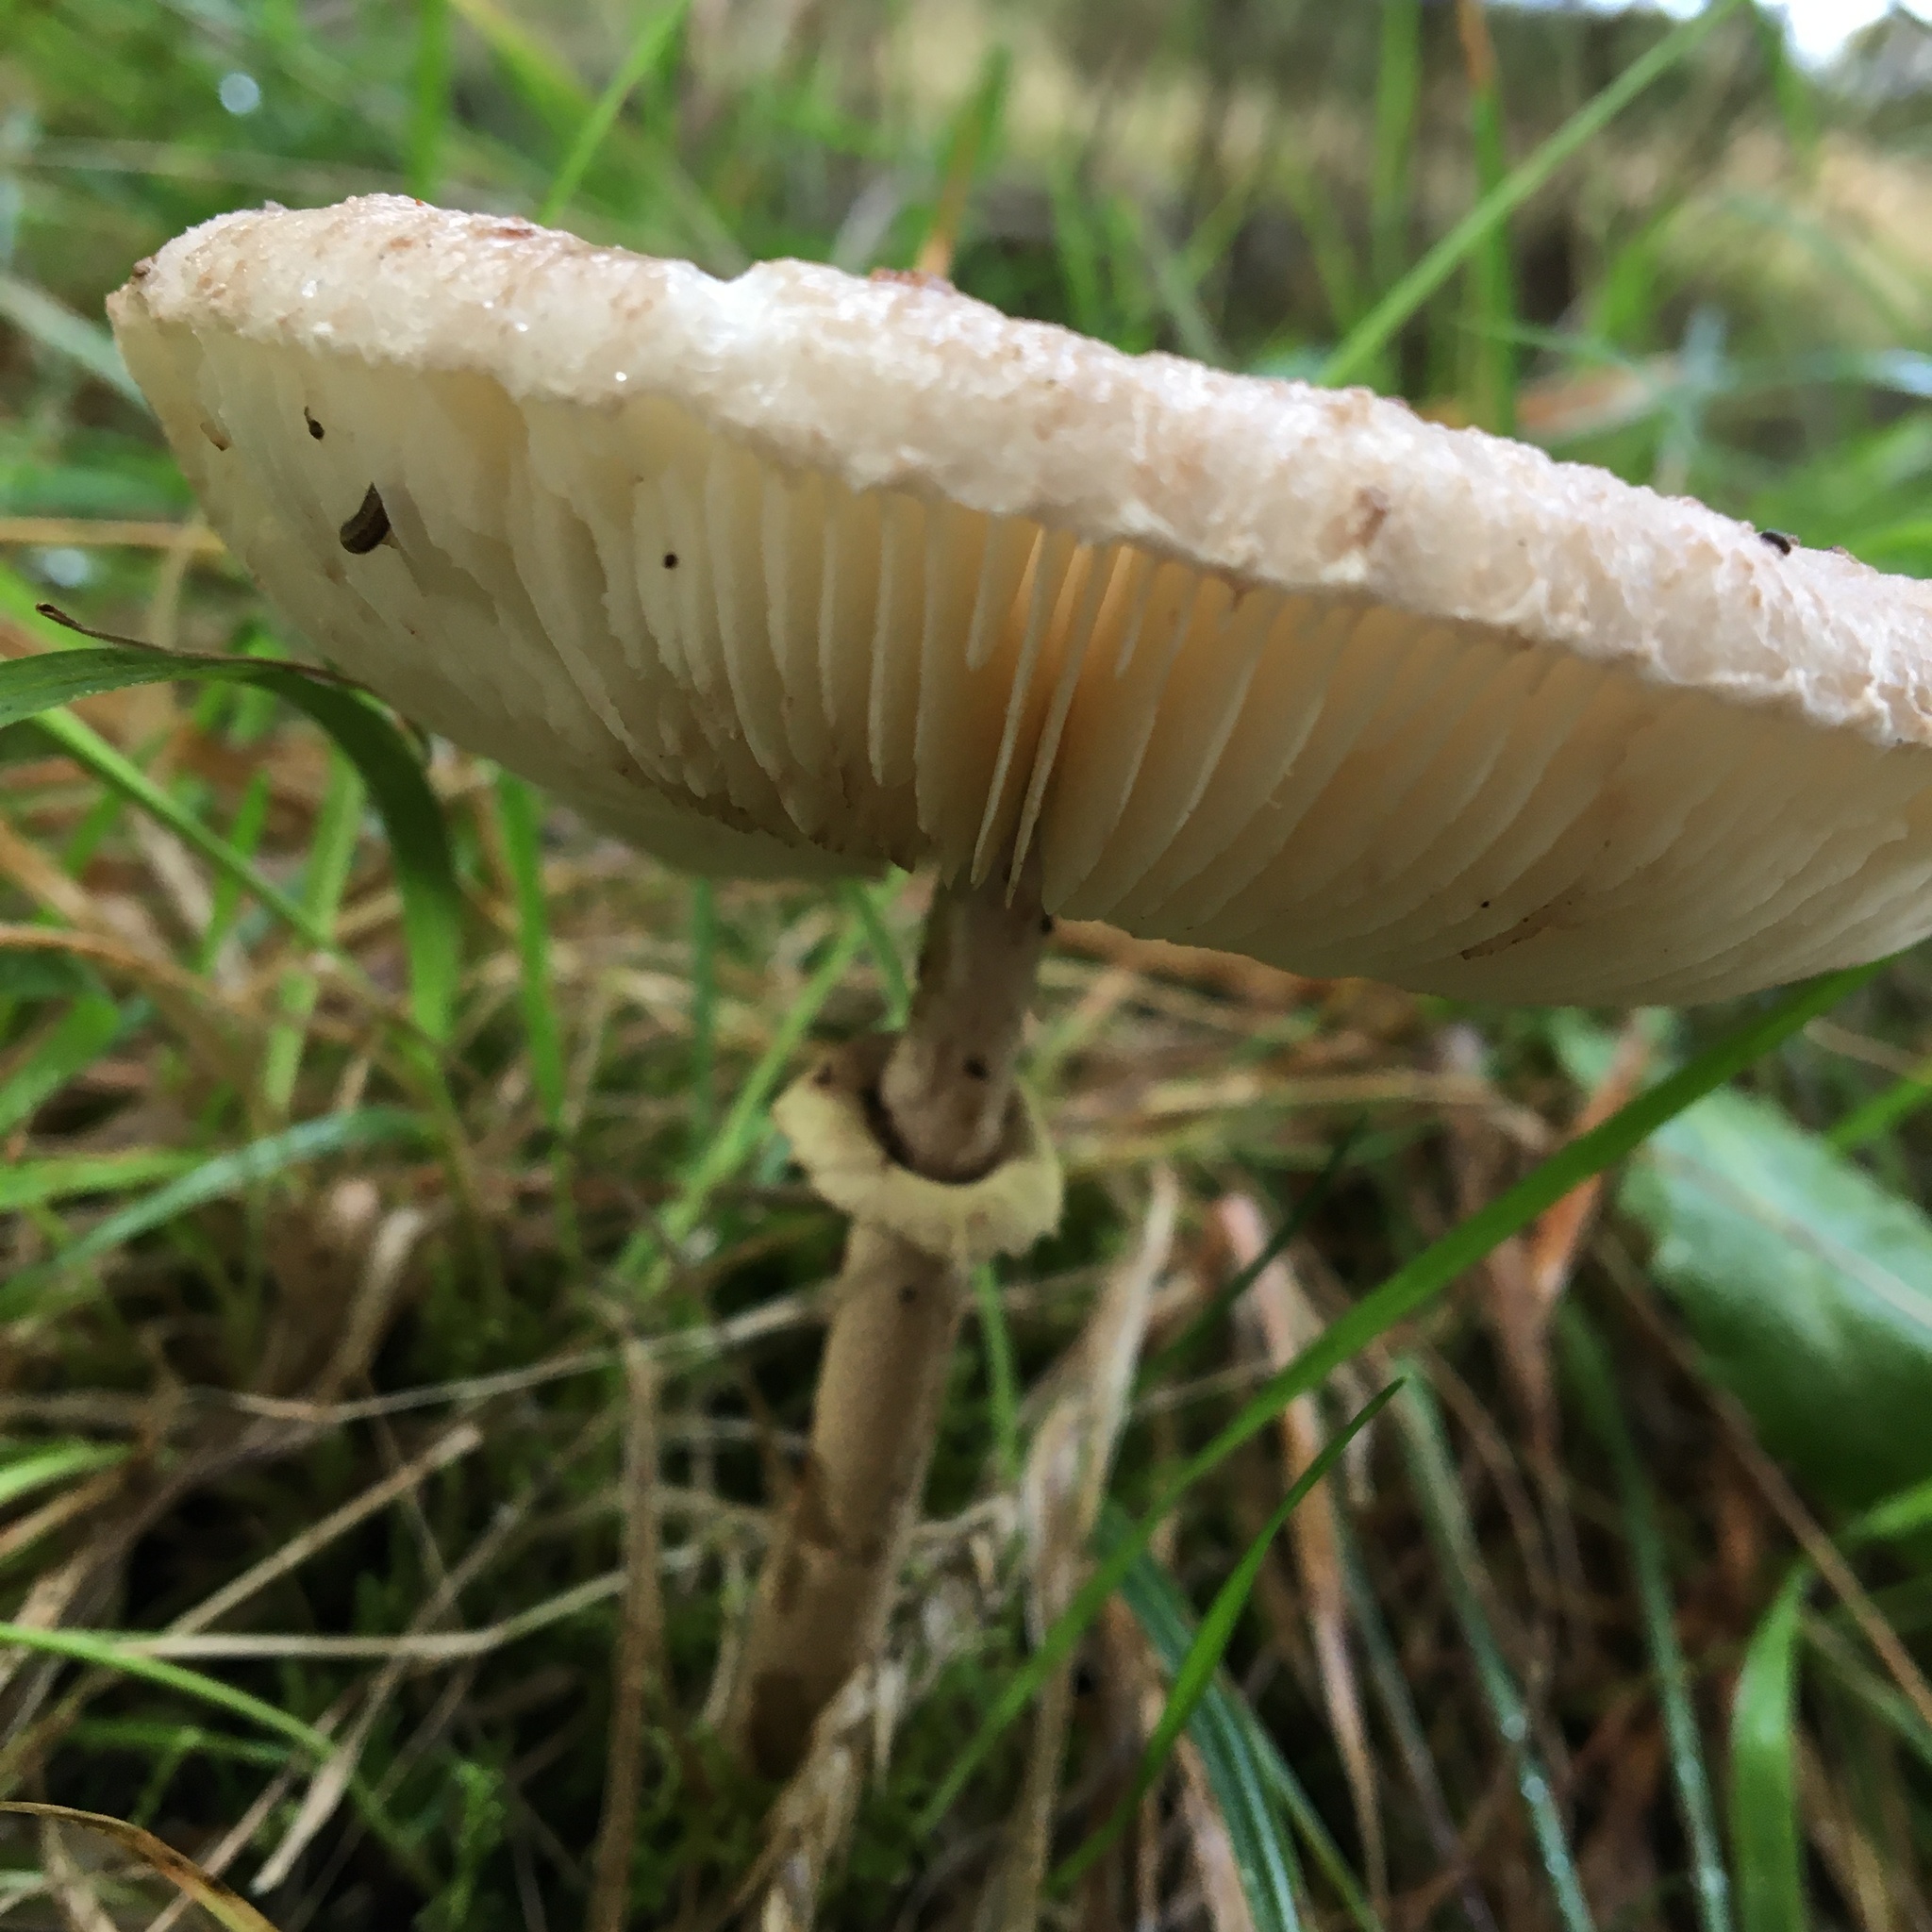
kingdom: Fungi
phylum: Basidiomycota
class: Agaricomycetes
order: Agaricales
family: Agaricaceae
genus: Macrolepiota
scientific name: Macrolepiota clelandii
